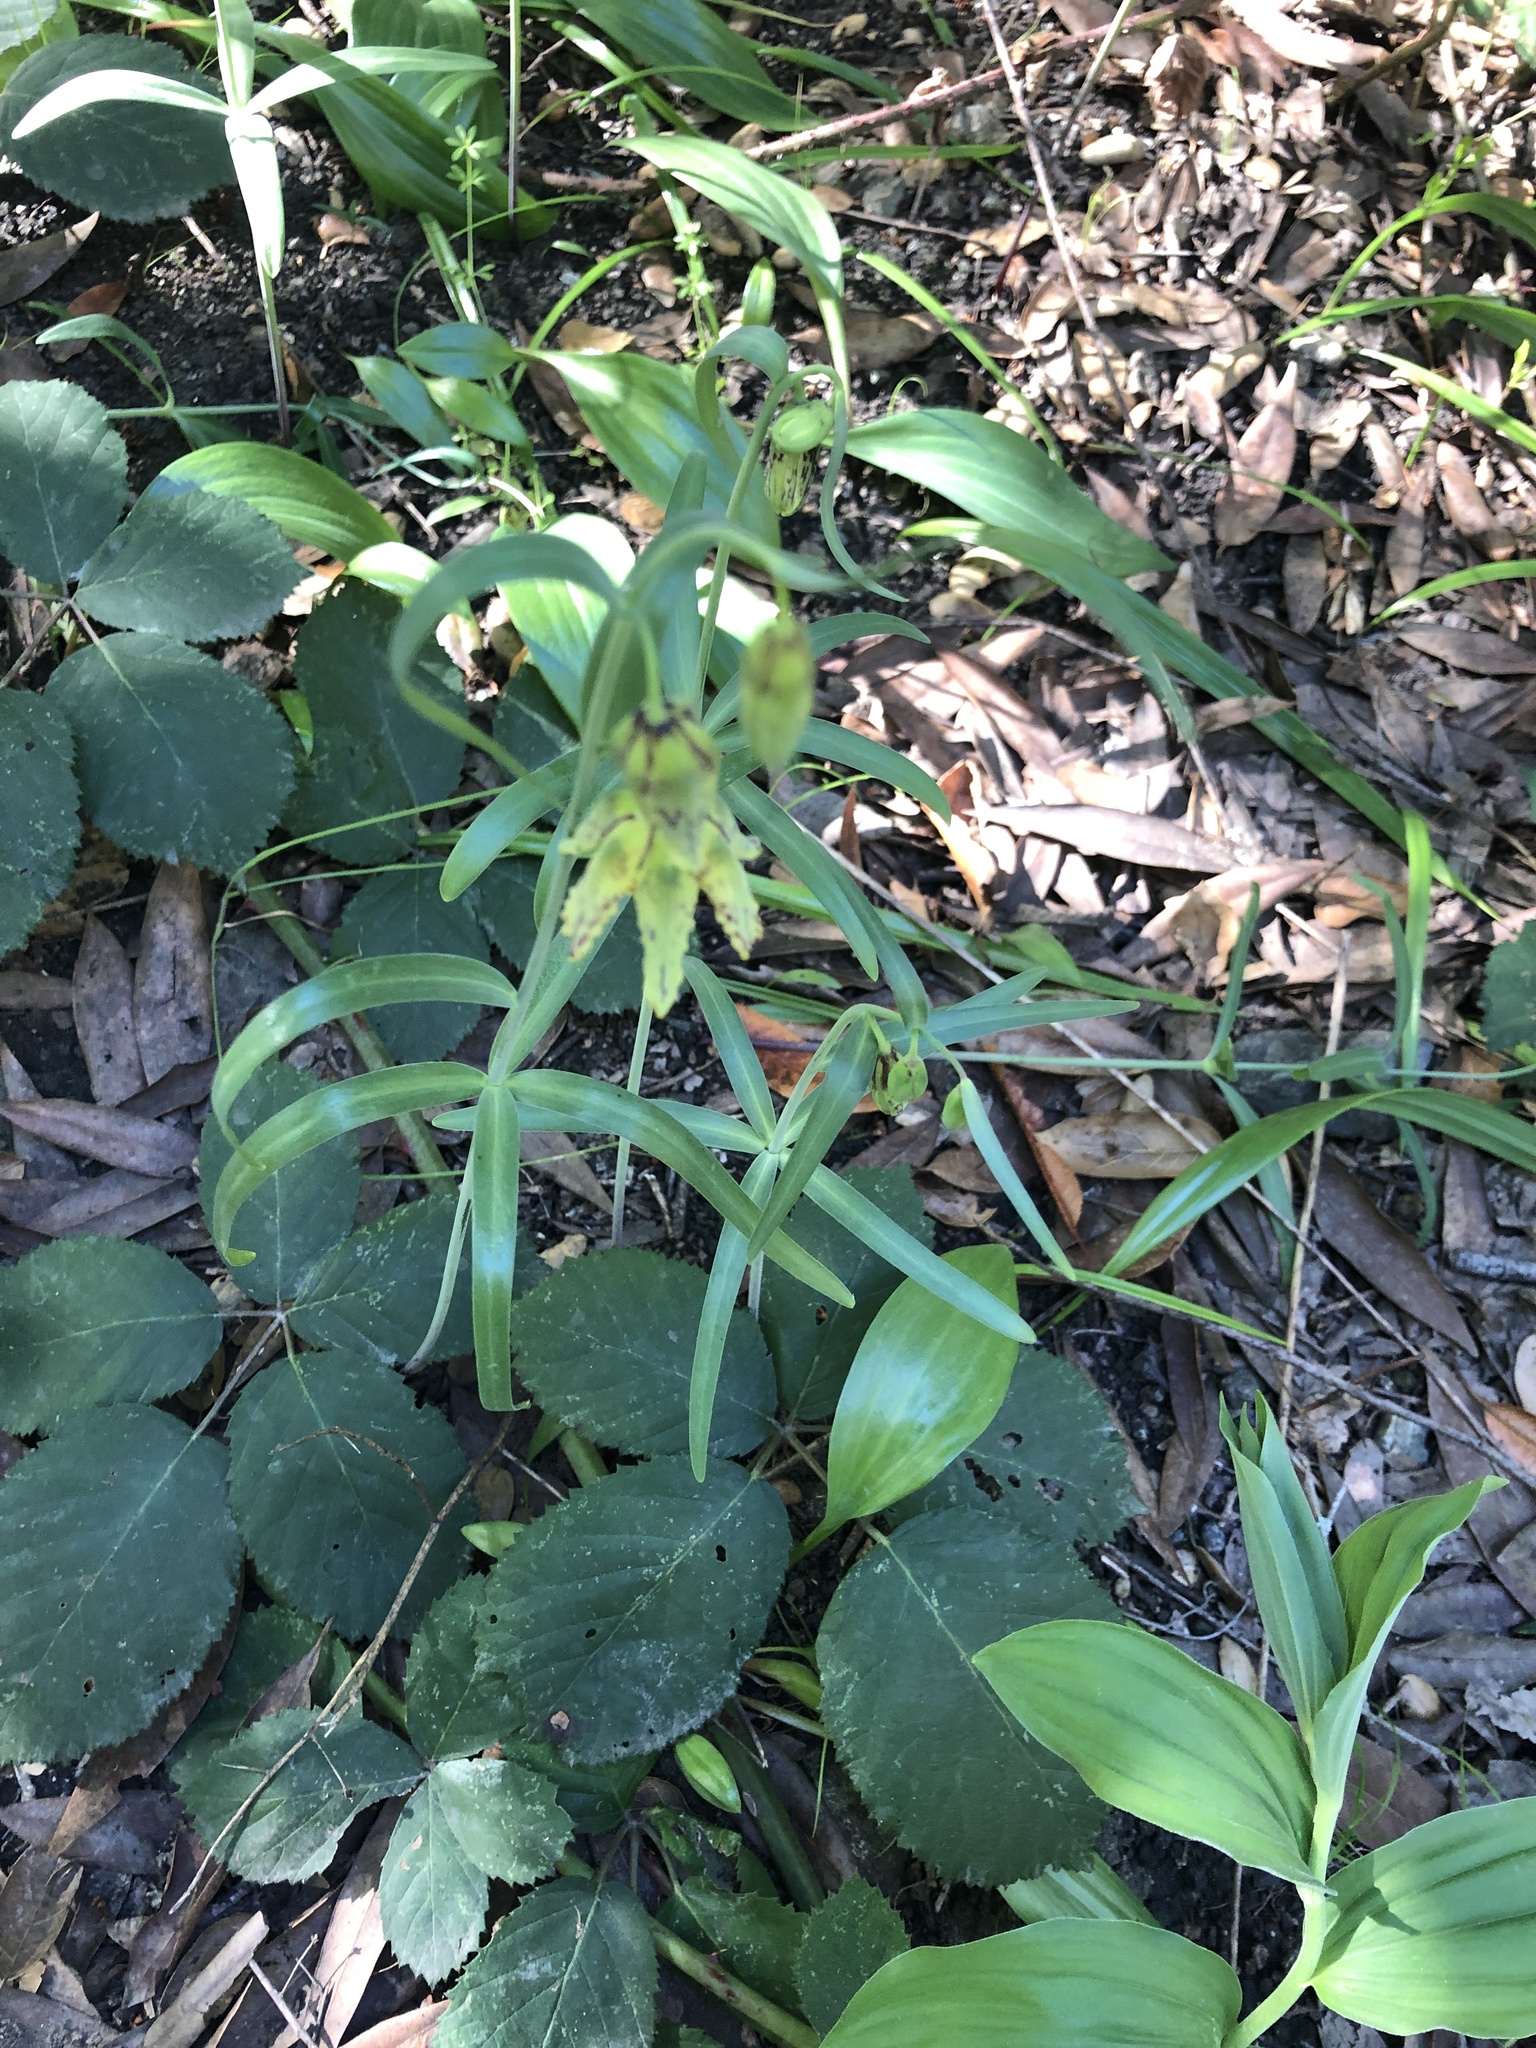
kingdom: Plantae
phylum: Tracheophyta
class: Liliopsida
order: Liliales
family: Liliaceae
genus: Fritillaria
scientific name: Fritillaria affinis
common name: Ojai fritillary
